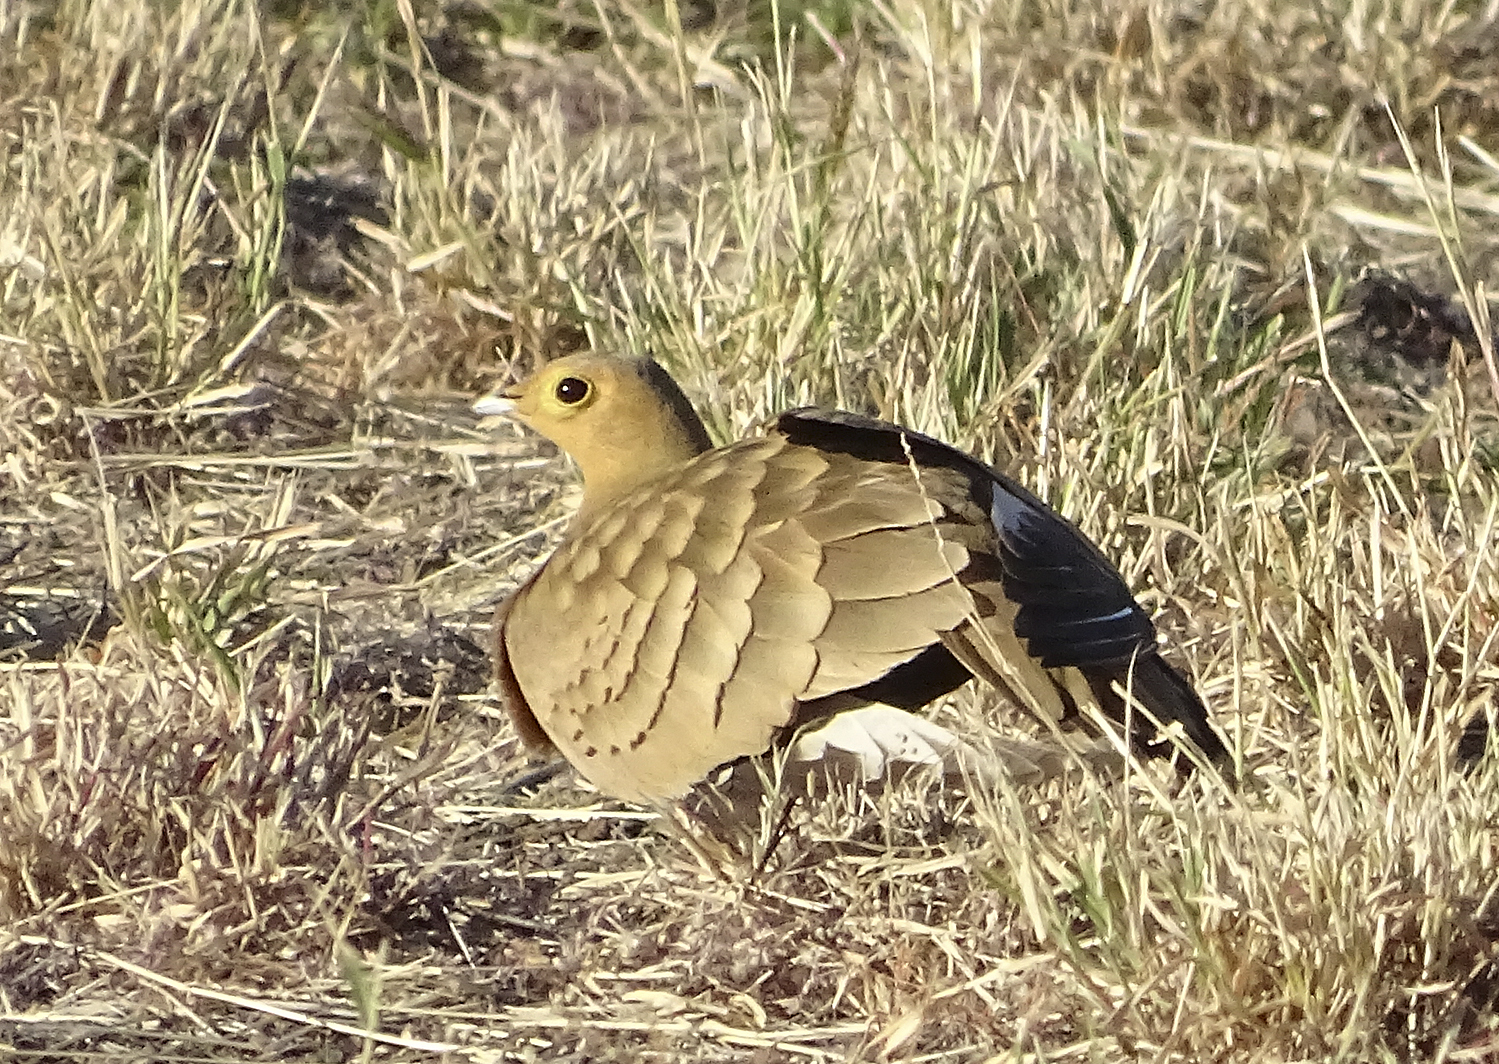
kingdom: Animalia
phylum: Chordata
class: Aves
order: Pteroclidiformes
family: Pteroclididae
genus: Pterocles
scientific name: Pterocles exustus
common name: Chestnut-bellied sandgrouse
